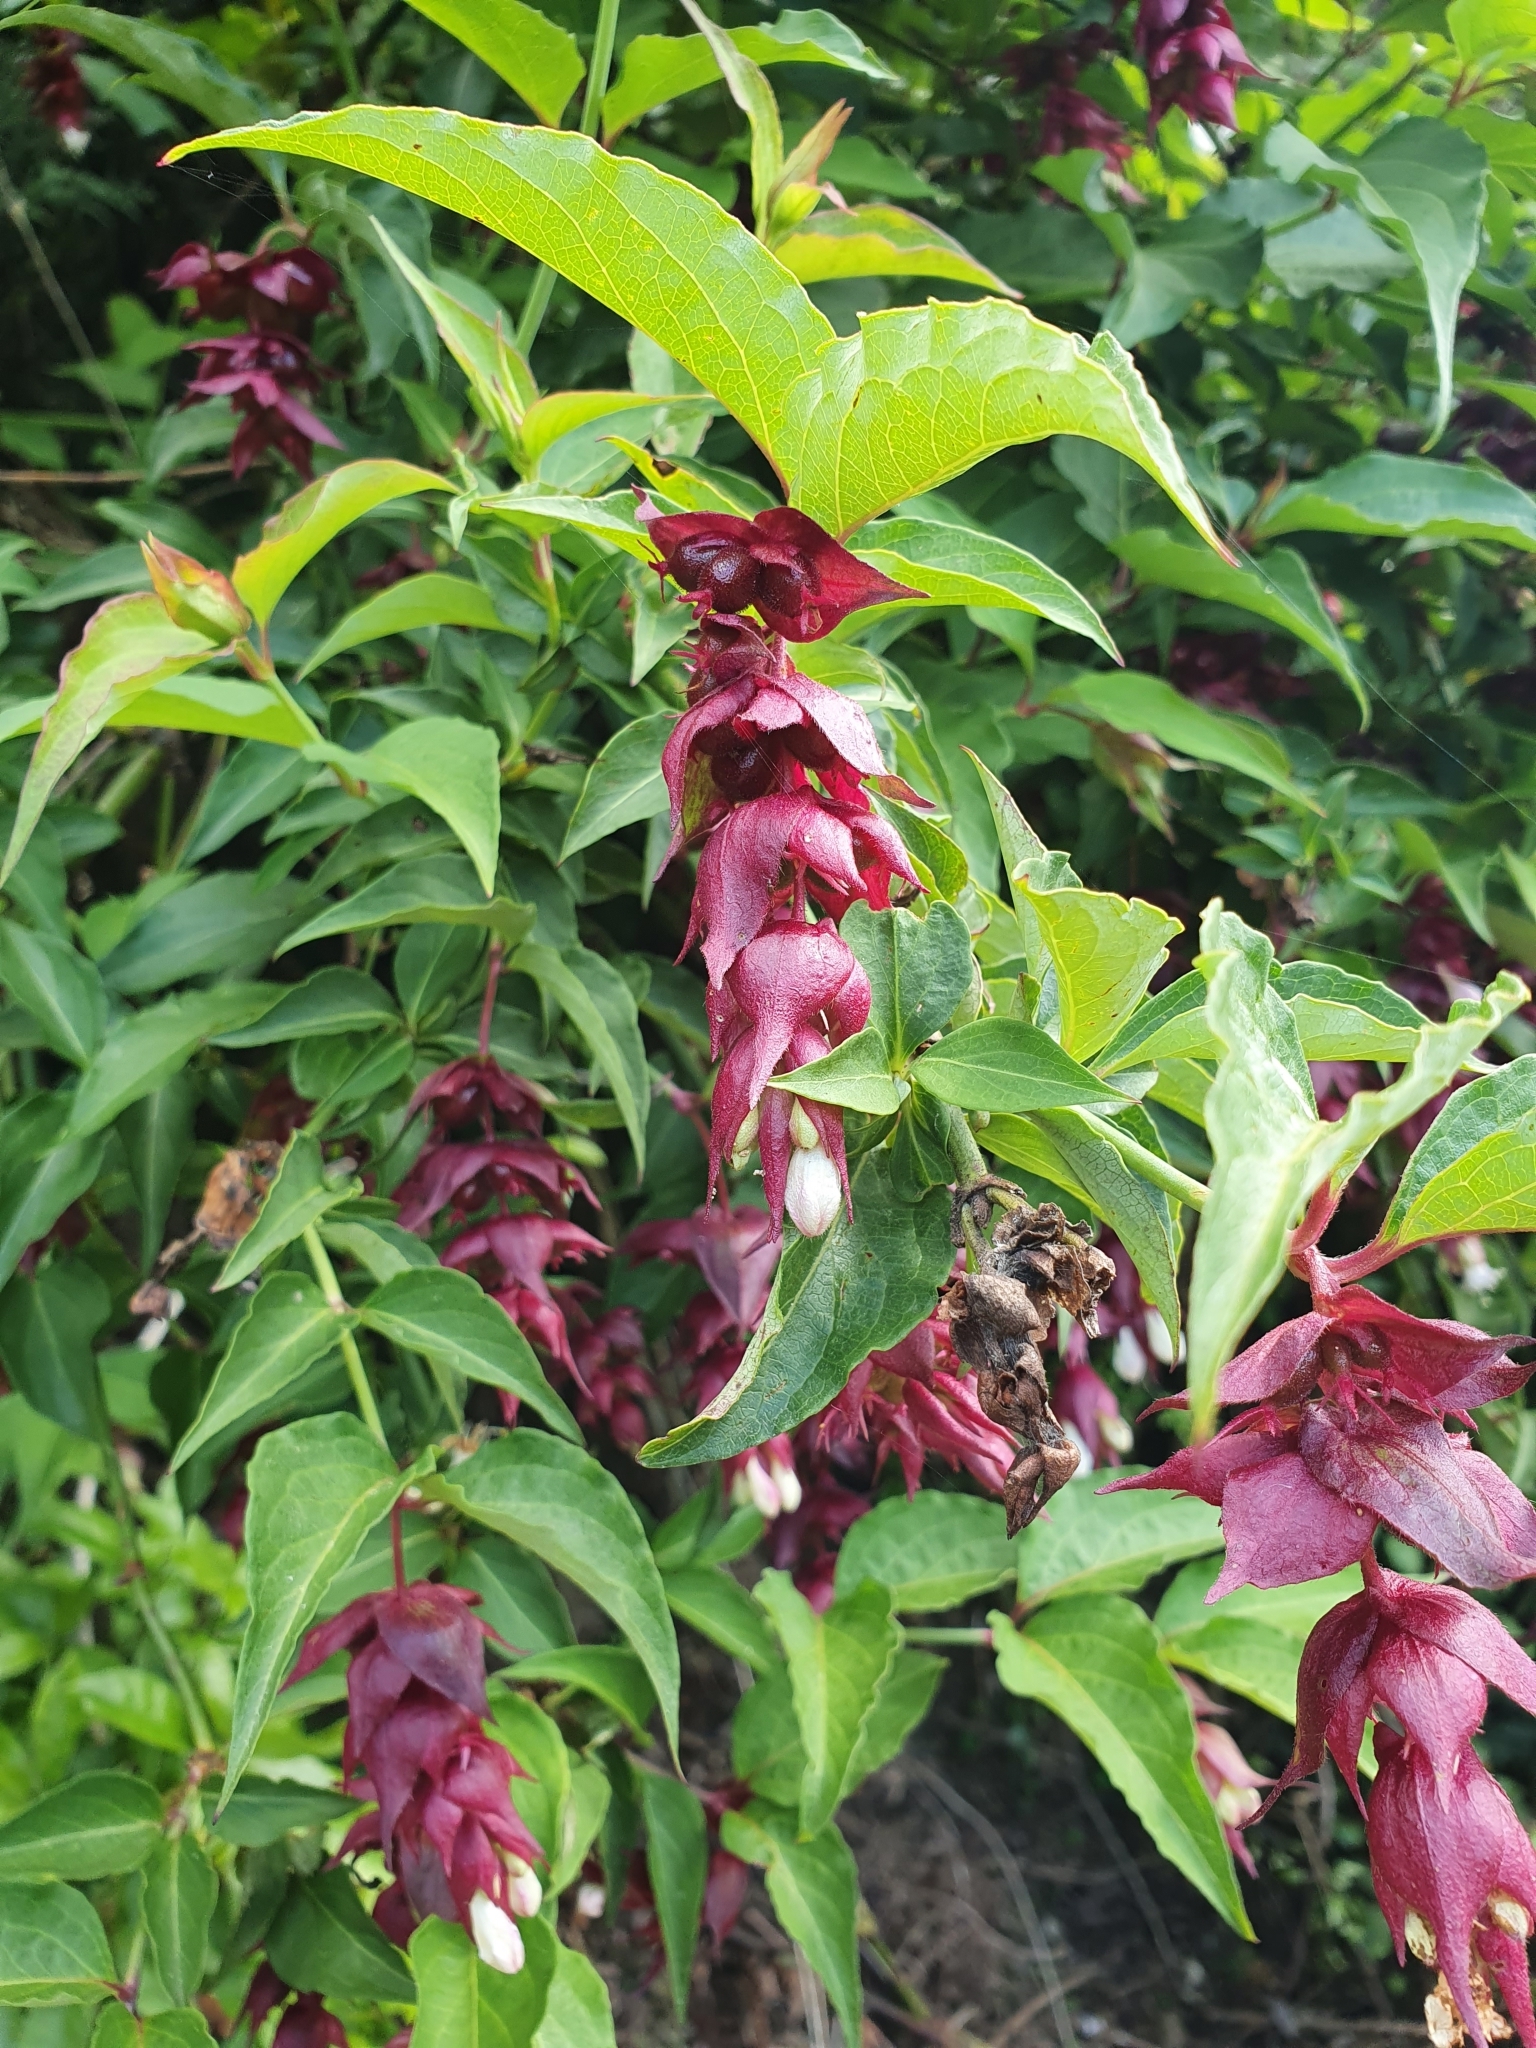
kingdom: Plantae
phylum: Tracheophyta
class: Magnoliopsida
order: Dipsacales
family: Caprifoliaceae
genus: Leycesteria
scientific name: Leycesteria formosa
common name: Himalayan honeysuckle
